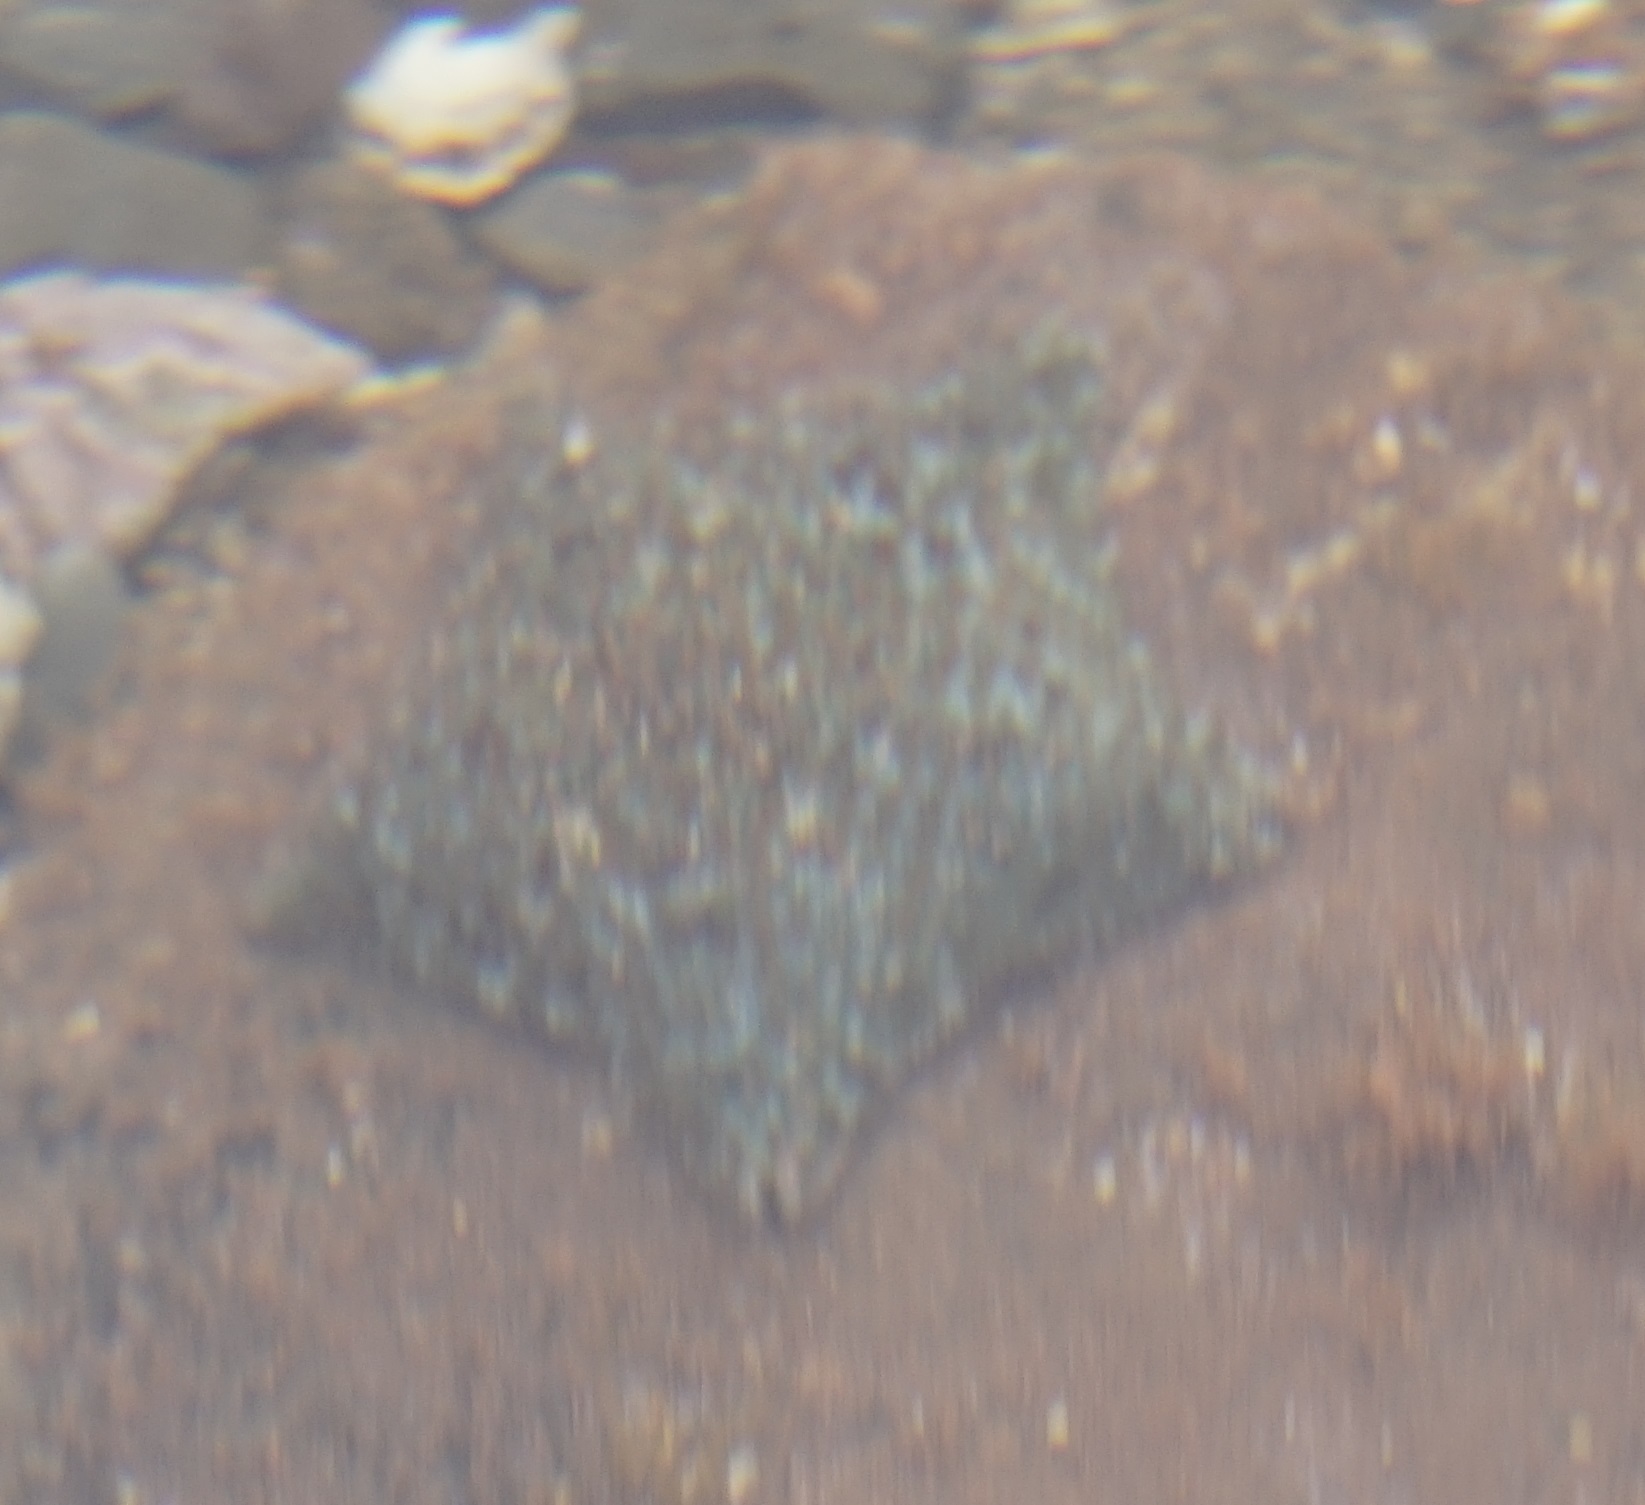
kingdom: Animalia
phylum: Echinodermata
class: Asteroidea
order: Valvatida
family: Asterinidae
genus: Parvulastra
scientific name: Parvulastra exigua
